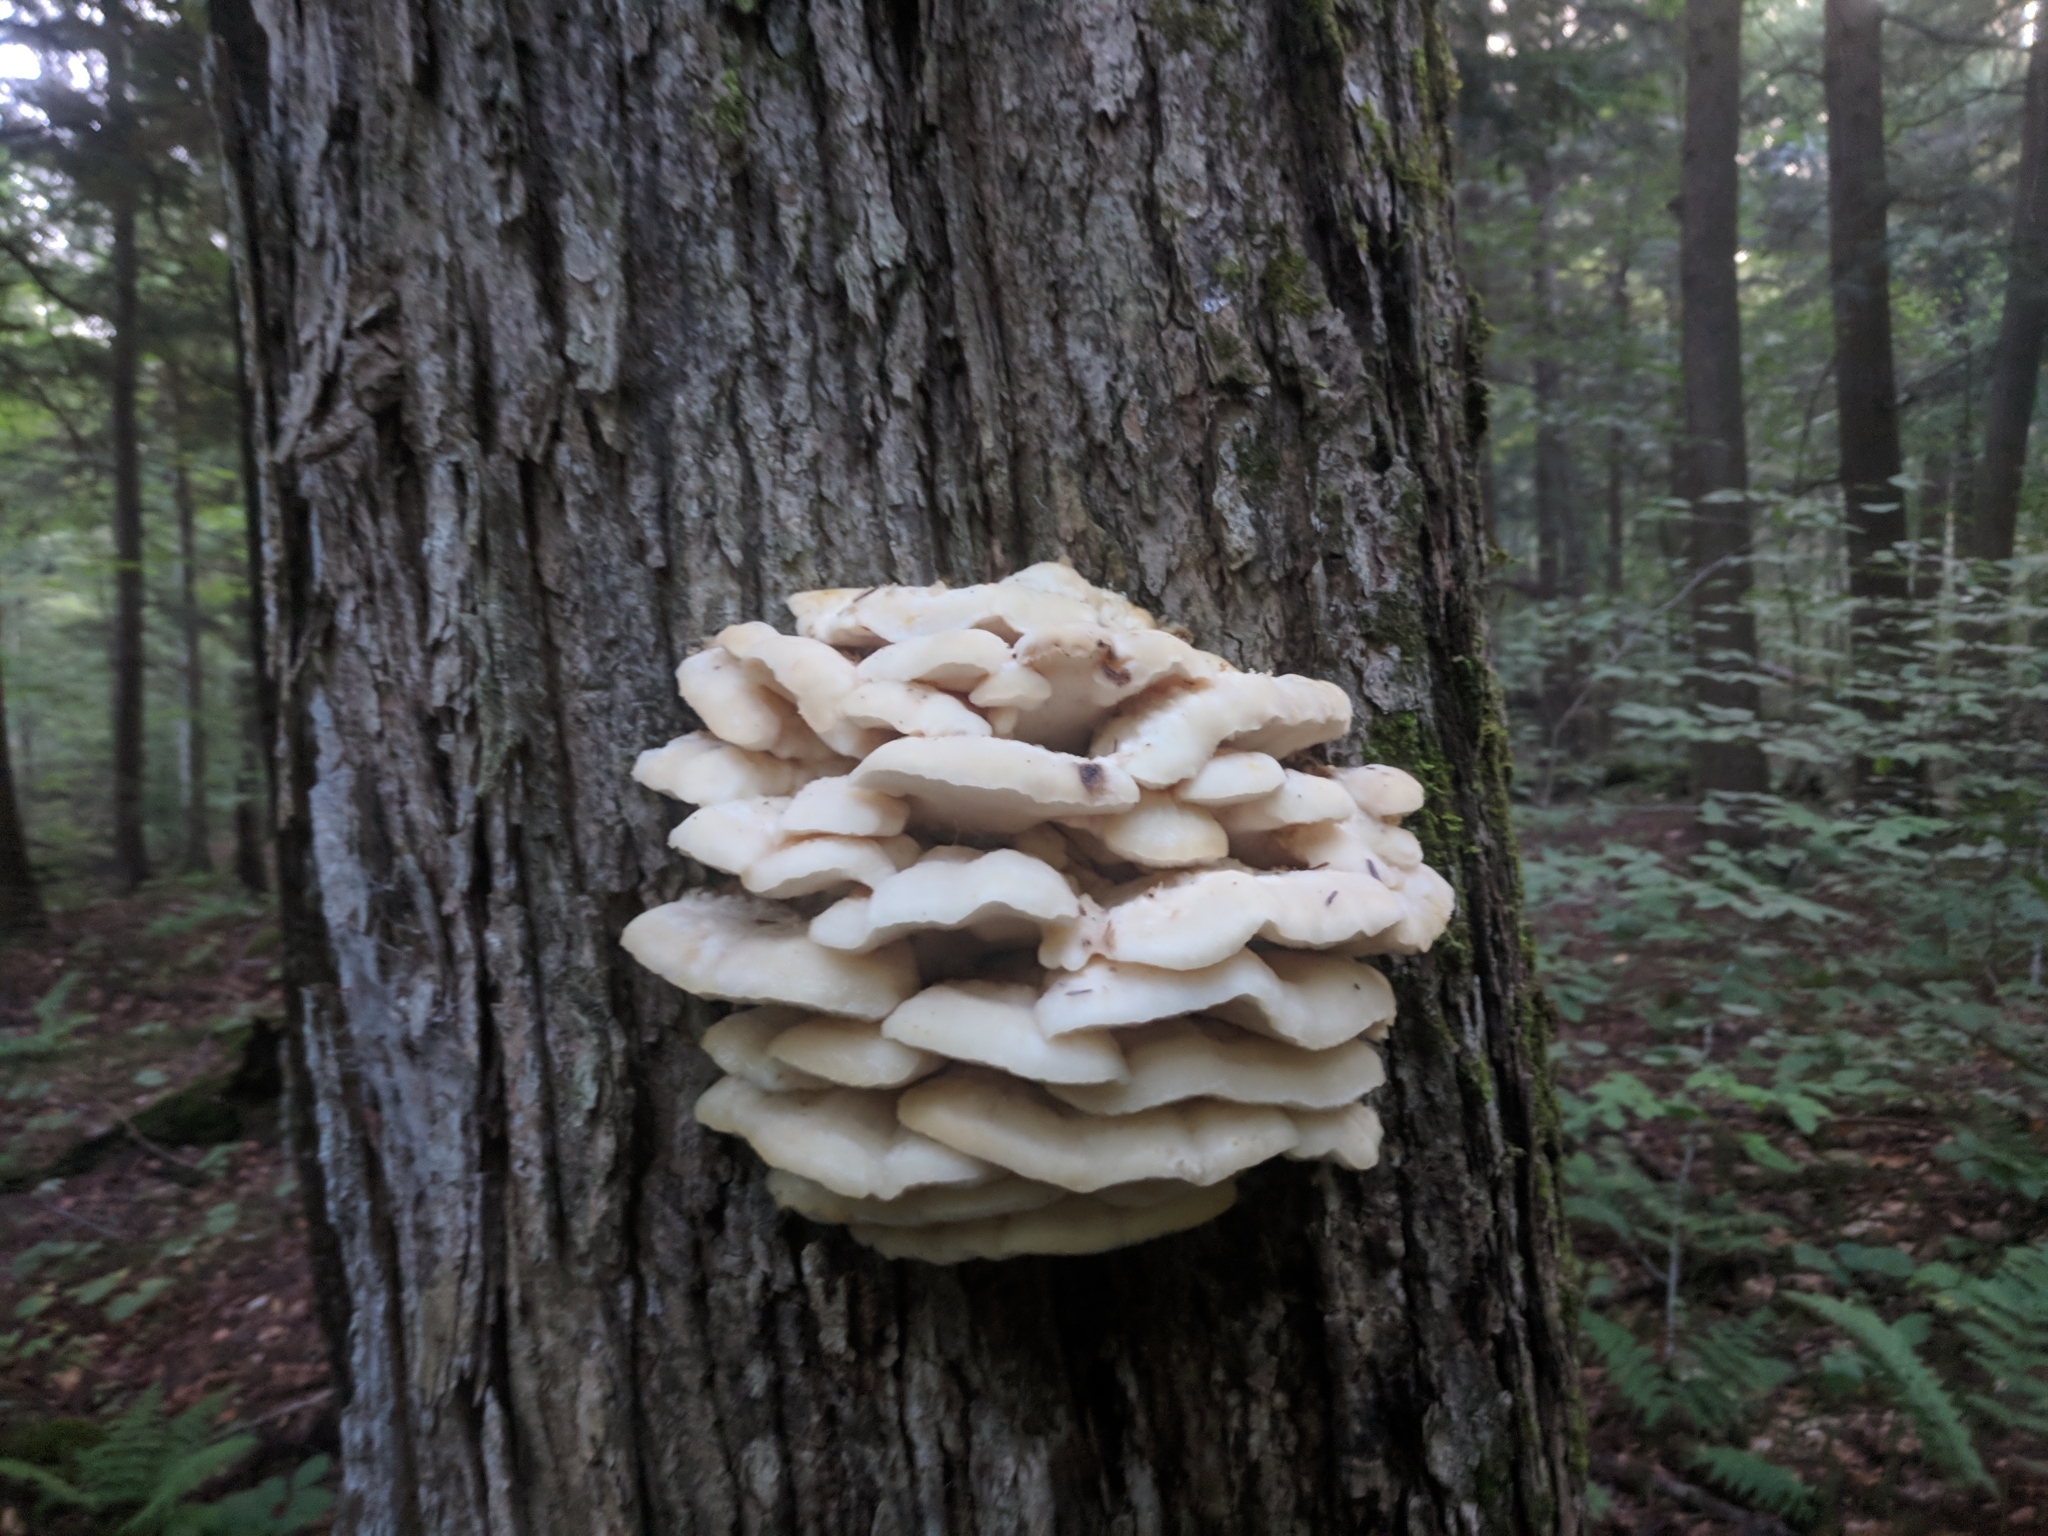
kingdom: Fungi
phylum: Basidiomycota
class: Agaricomycetes
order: Polyporales
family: Meruliaceae
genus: Climacodon
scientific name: Climacodon septentrionalis
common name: Northern tooth
